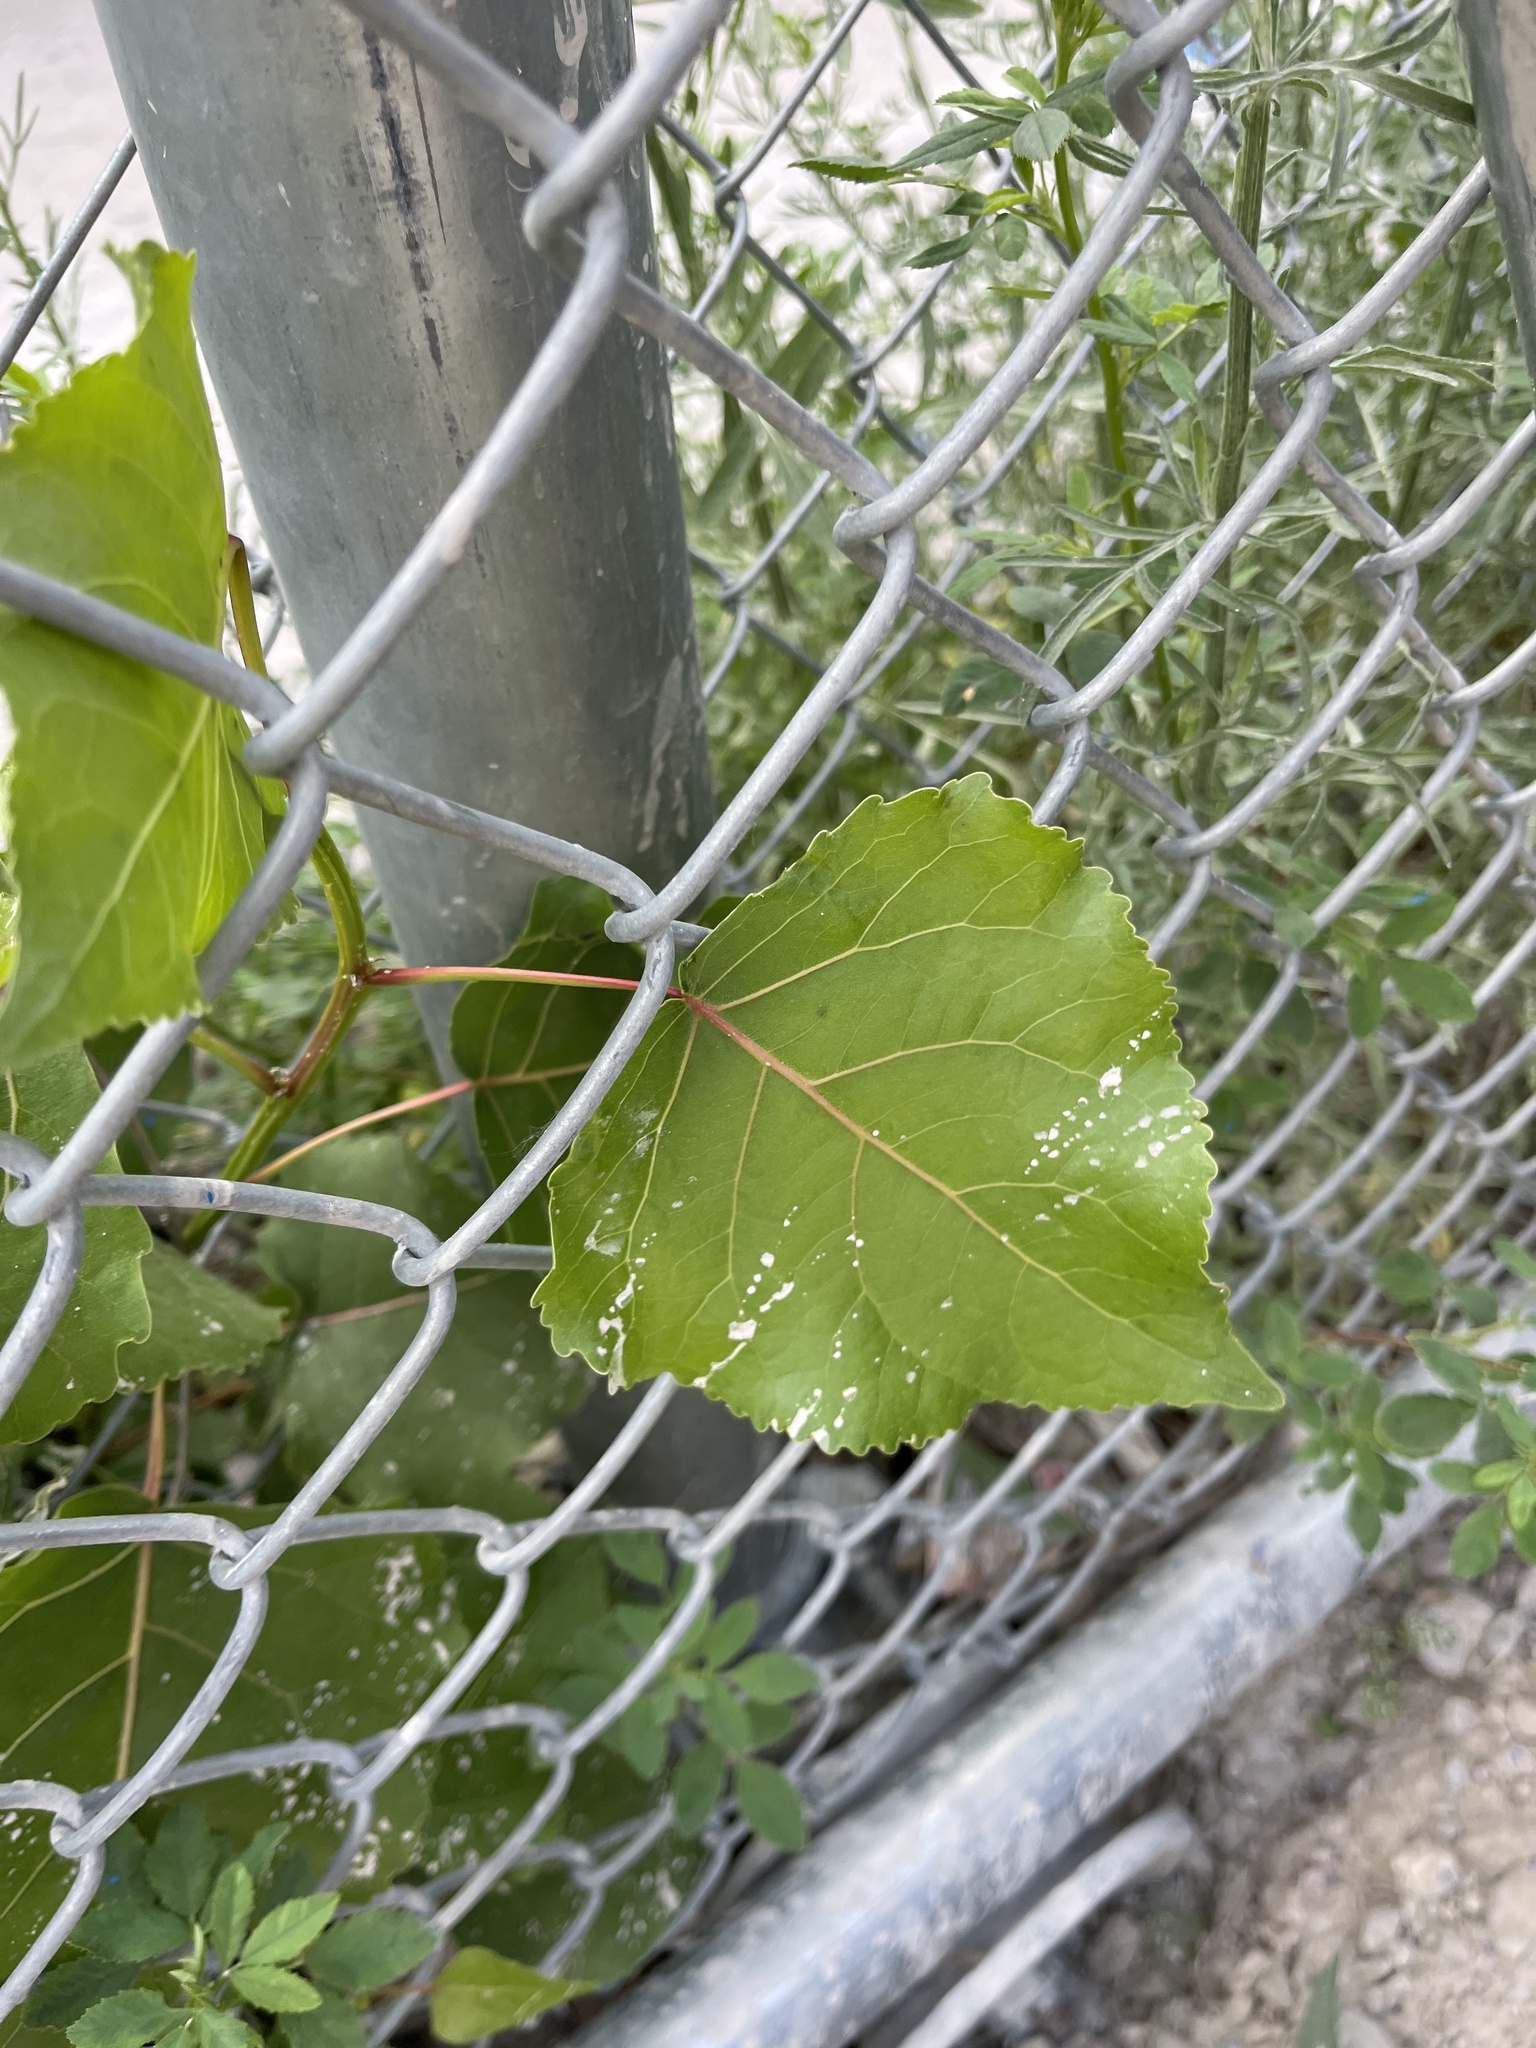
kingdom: Plantae
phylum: Tracheophyta
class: Magnoliopsida
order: Malpighiales
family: Salicaceae
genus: Populus
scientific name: Populus deltoides
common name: Eastern cottonwood
